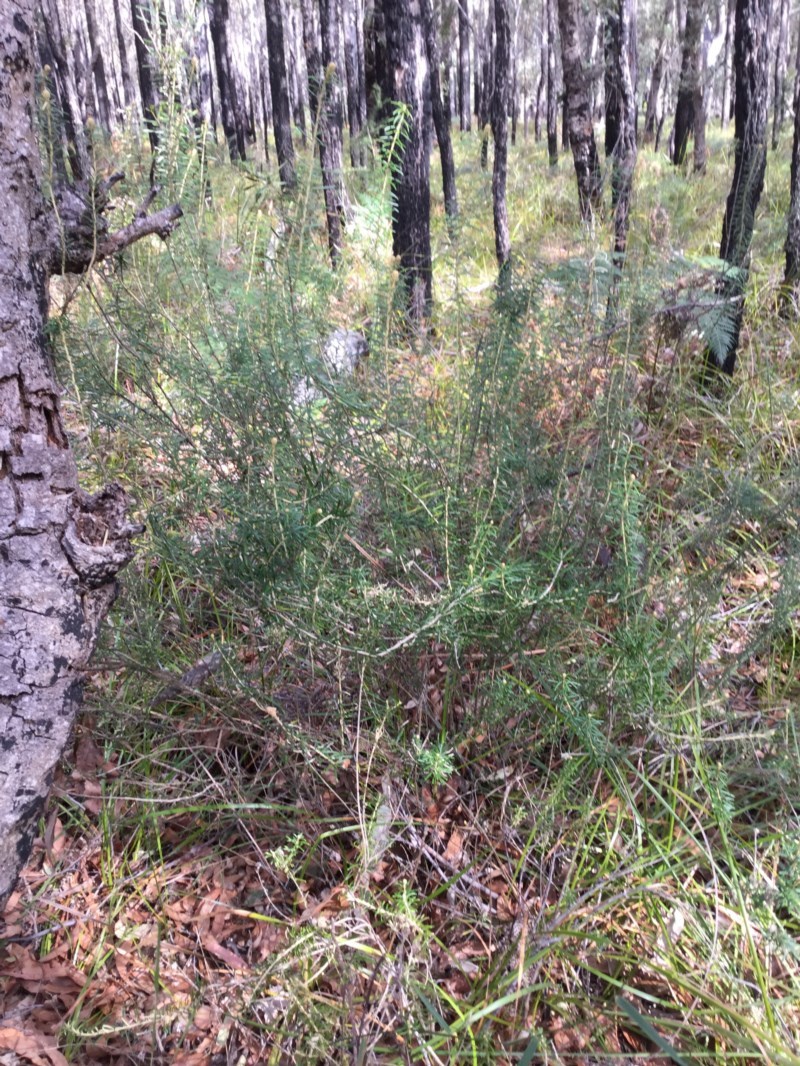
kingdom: Plantae
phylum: Tracheophyta
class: Magnoliopsida
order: Apiales
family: Araliaceae
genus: Astrotricha
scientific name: Astrotricha
